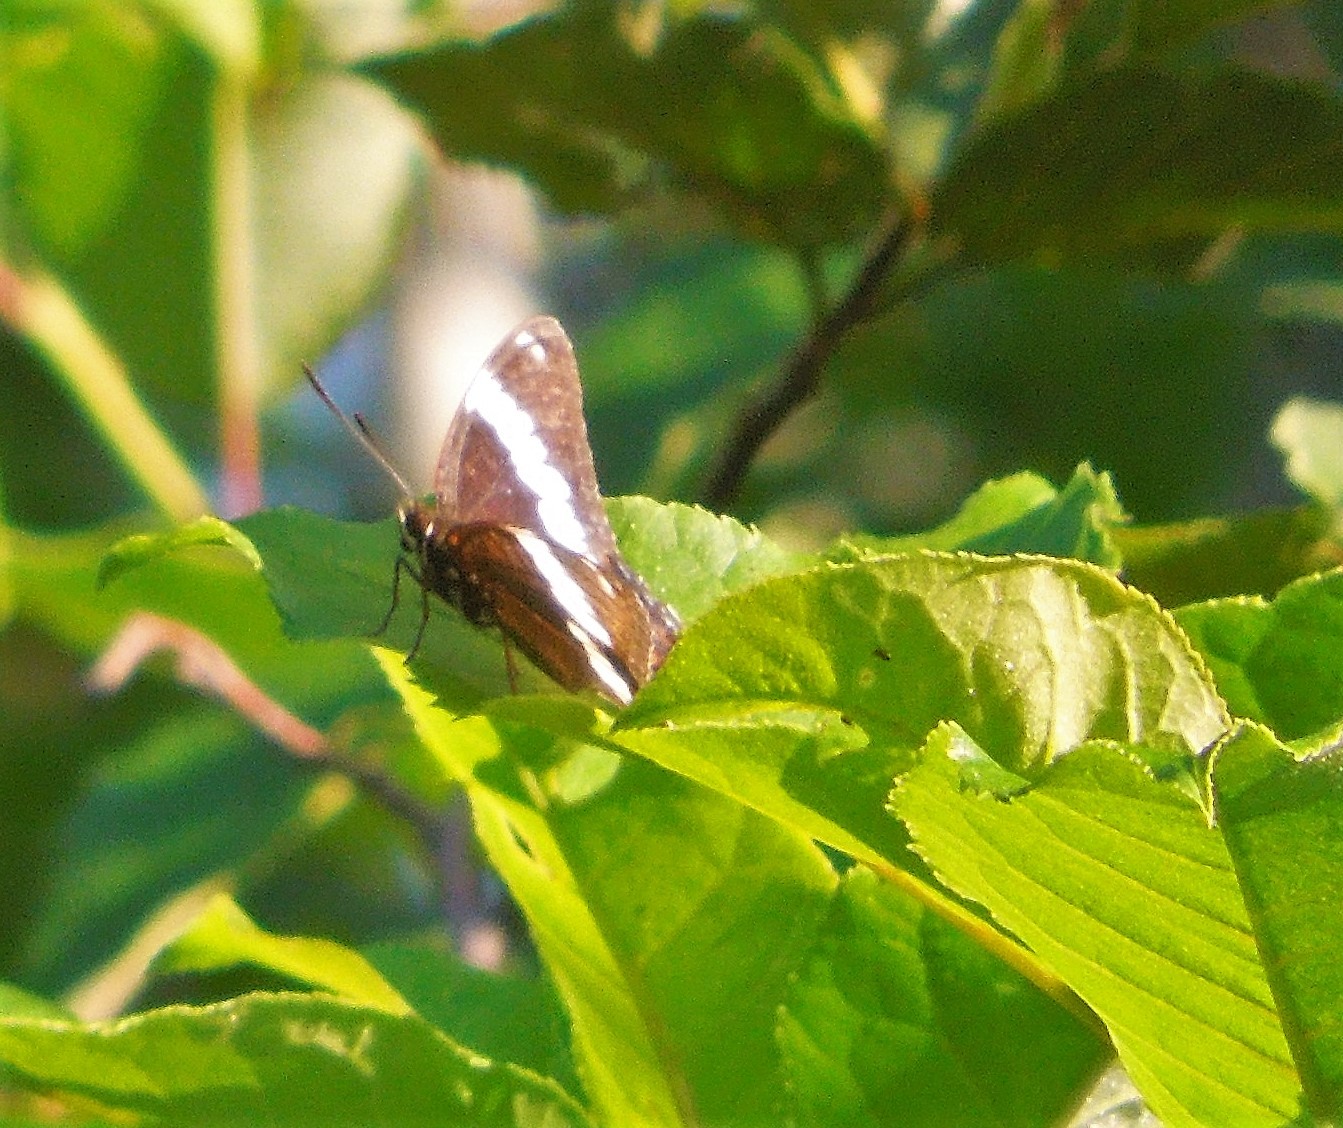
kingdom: Animalia
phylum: Arthropoda
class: Insecta
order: Lepidoptera
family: Nymphalidae
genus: Limenitis
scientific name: Limenitis arthemis
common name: Red-spotted admiral
